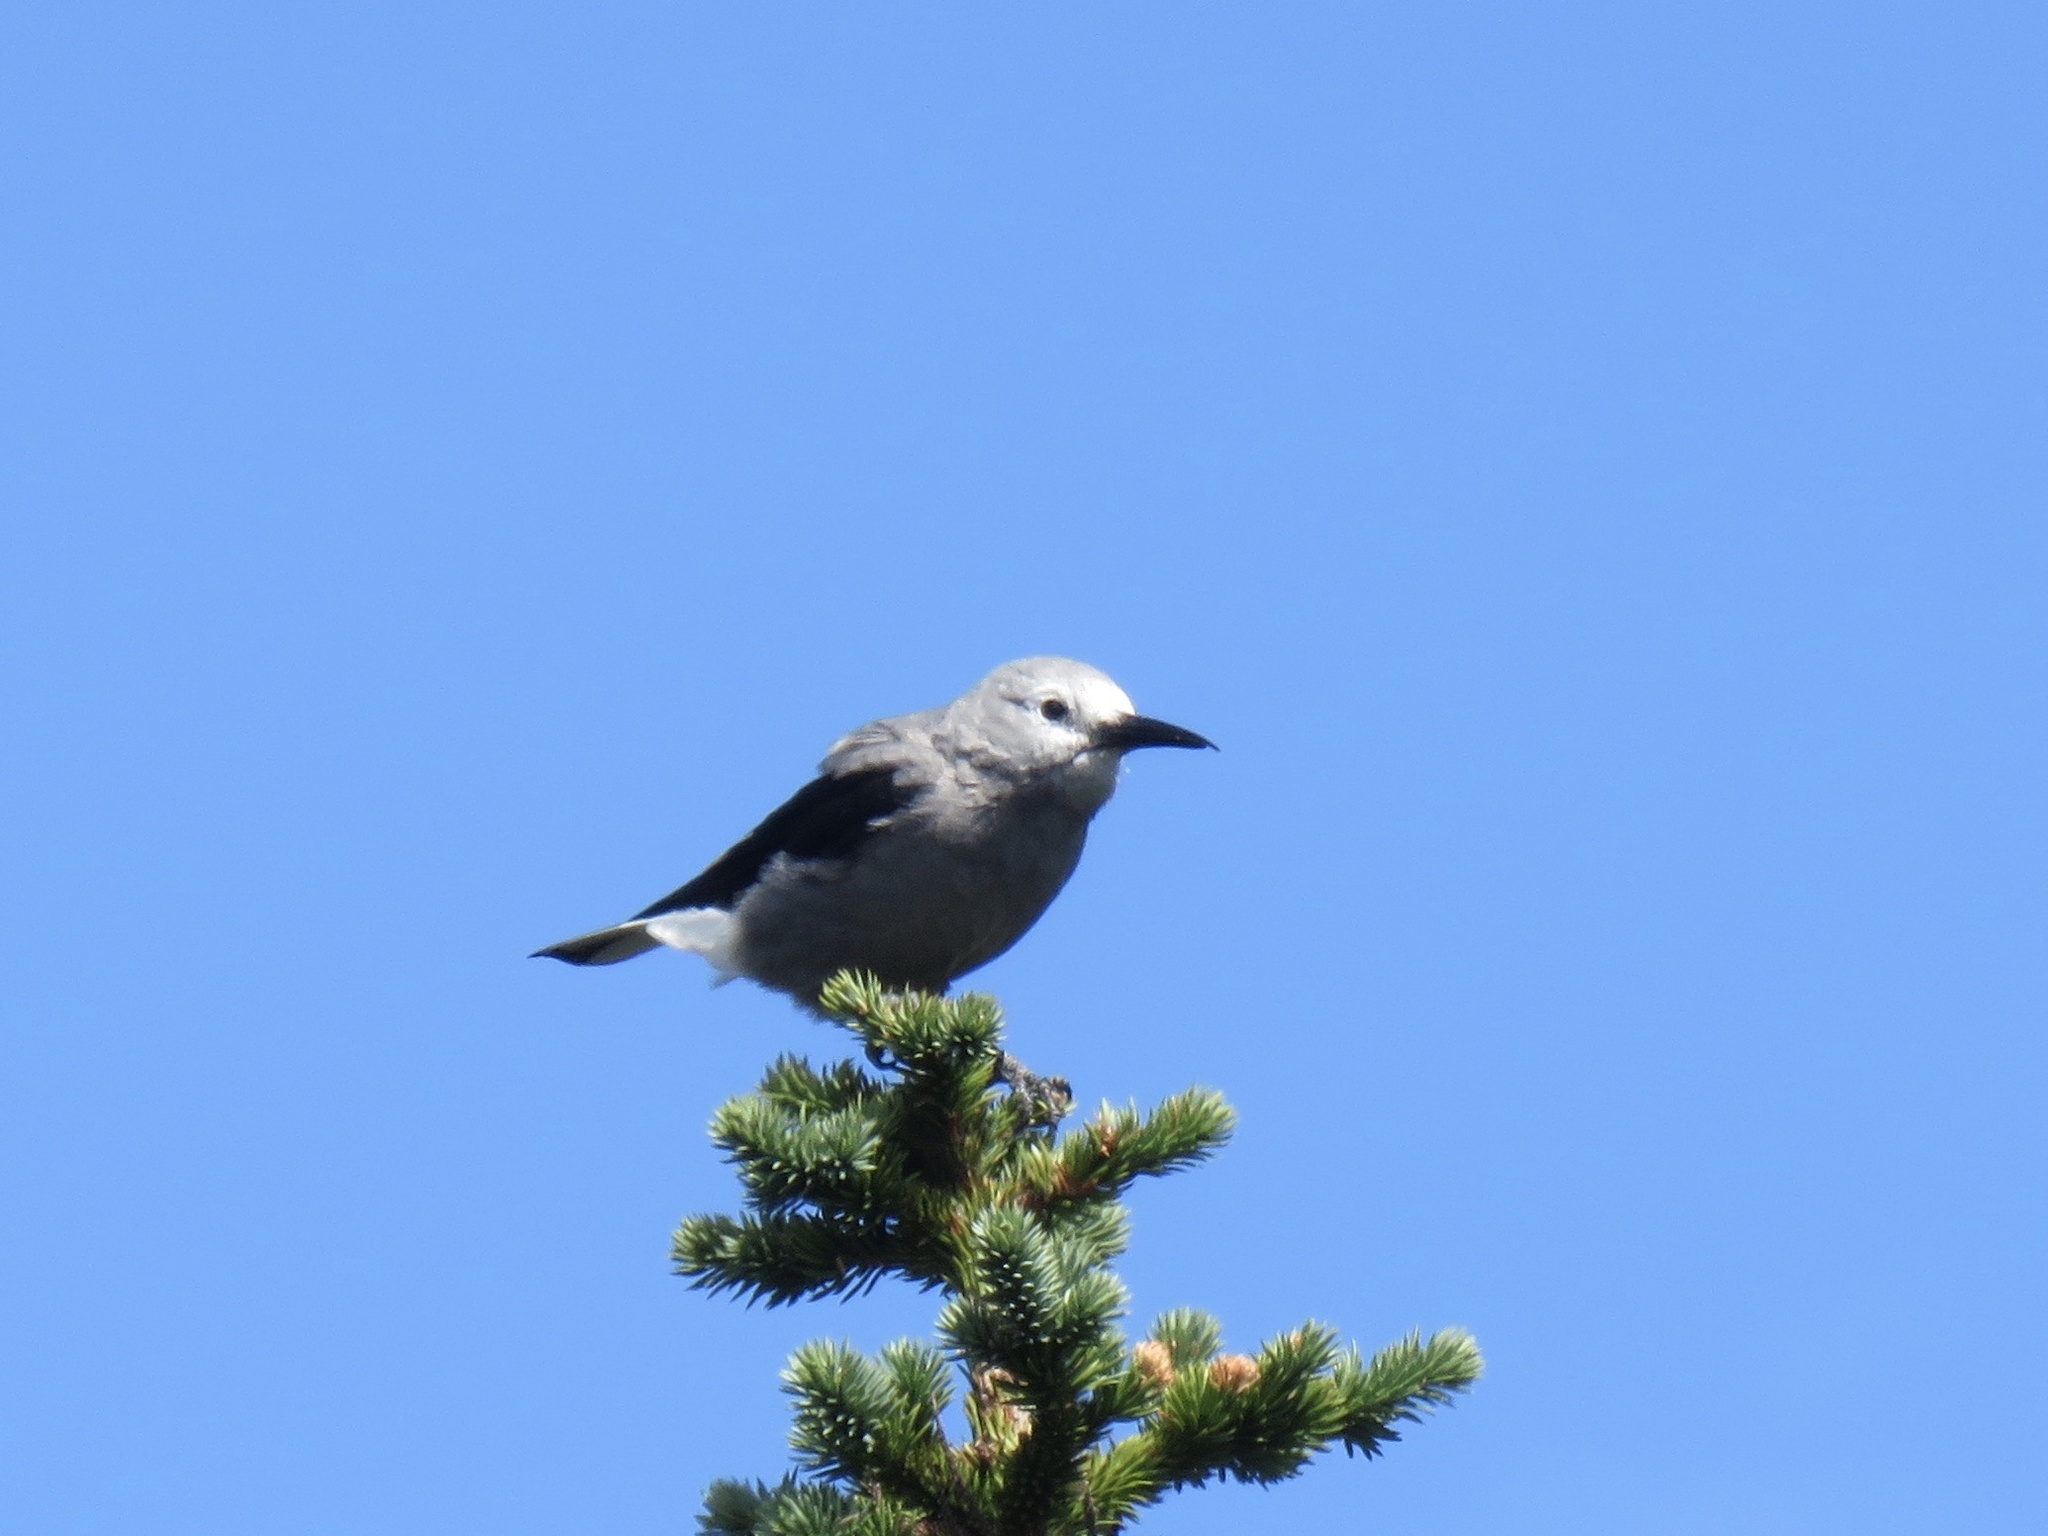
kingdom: Animalia
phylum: Chordata
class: Aves
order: Passeriformes
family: Corvidae
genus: Nucifraga
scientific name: Nucifraga columbiana
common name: Clark's nutcracker
